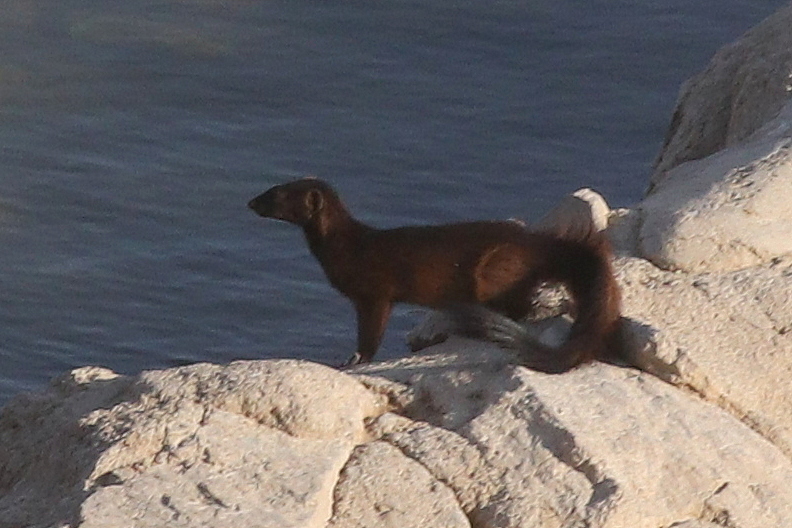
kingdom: Animalia
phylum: Chordata
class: Mammalia
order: Carnivora
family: Herpestidae
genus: Galerella
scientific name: Galerella flavescens
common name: Angolan slender mongoose
